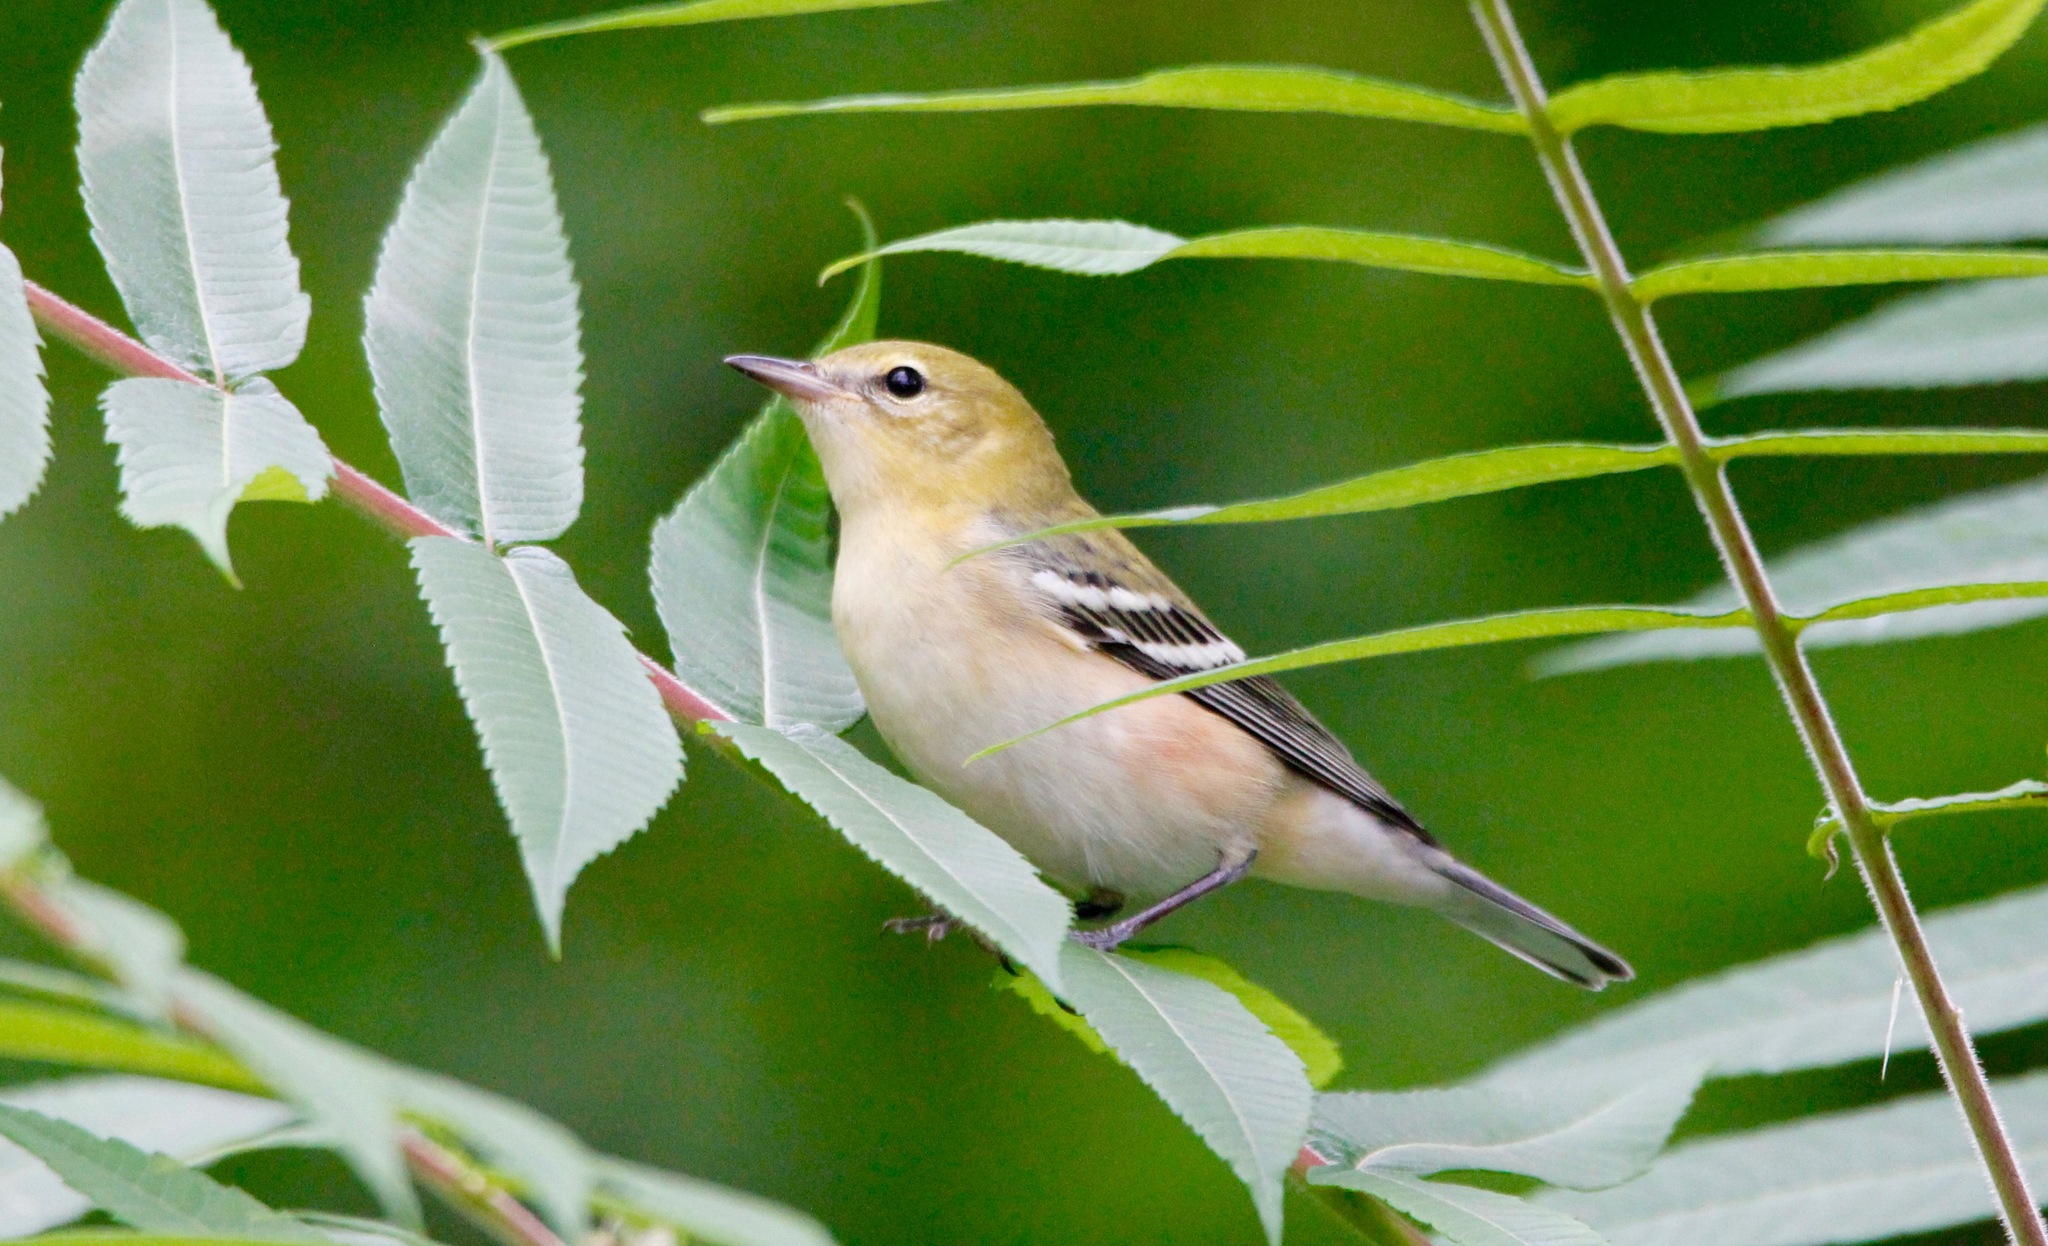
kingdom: Animalia
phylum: Chordata
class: Aves
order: Passeriformes
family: Parulidae
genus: Setophaga
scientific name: Setophaga castanea
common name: Bay-breasted warbler
